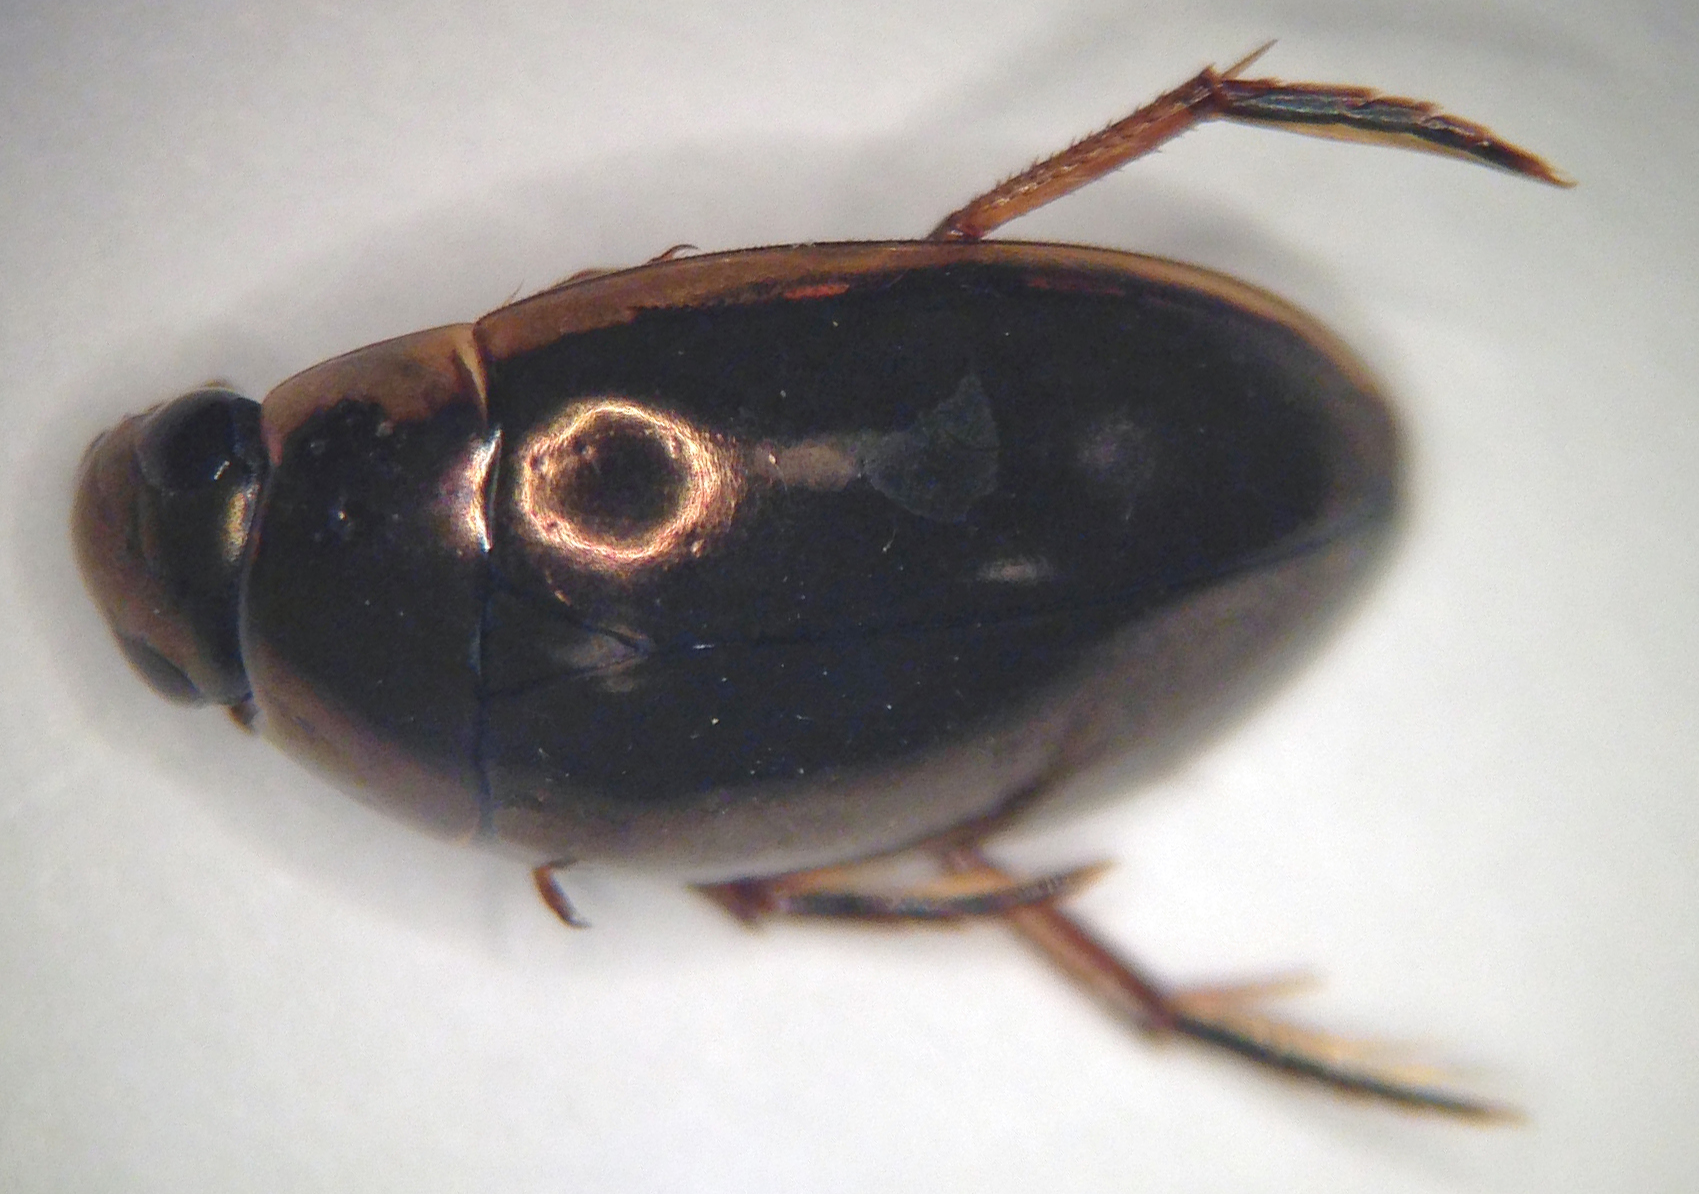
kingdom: Animalia
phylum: Arthropoda
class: Insecta
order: Coleoptera
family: Hydrophilidae
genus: Tropisternus
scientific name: Tropisternus lateralis
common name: Lateral-banded water scavenger beetle
